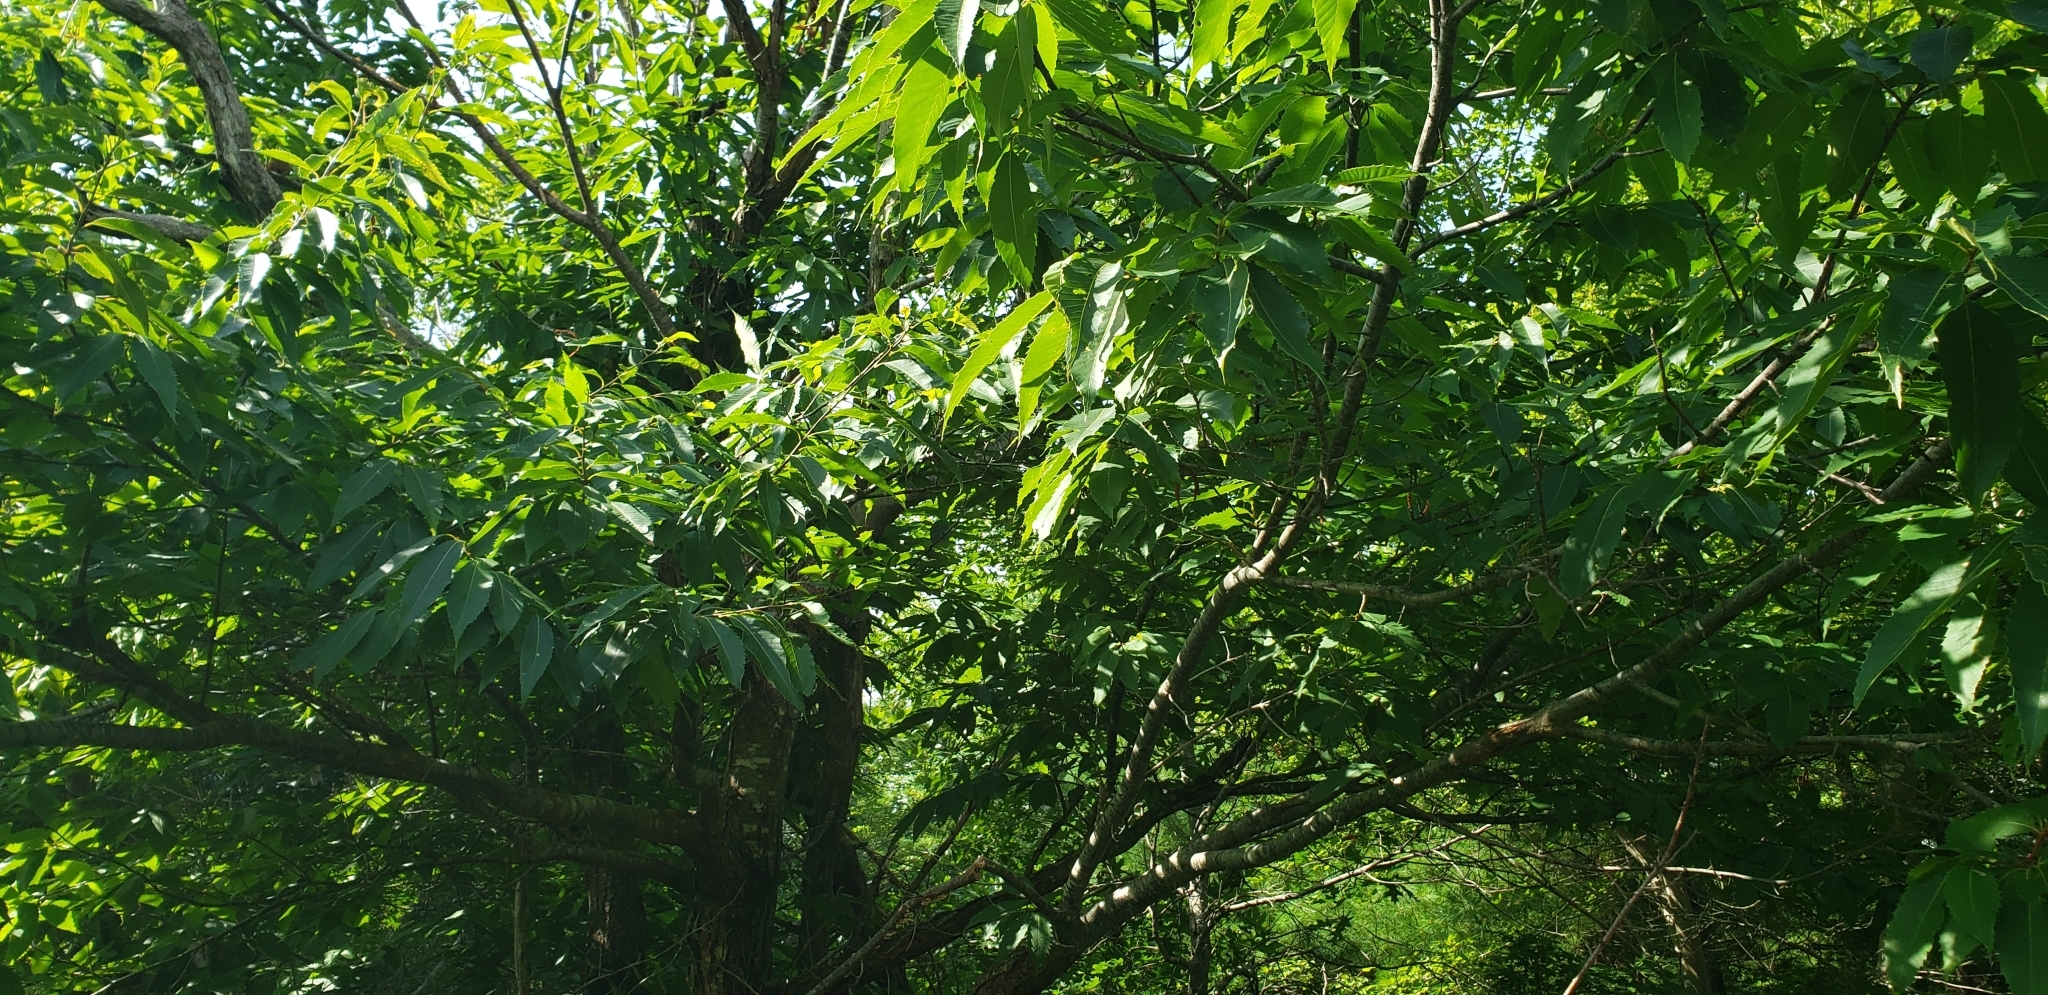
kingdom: Plantae
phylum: Tracheophyta
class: Magnoliopsida
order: Fagales
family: Fagaceae
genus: Castanea
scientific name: Castanea dentata
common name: American chestnut
